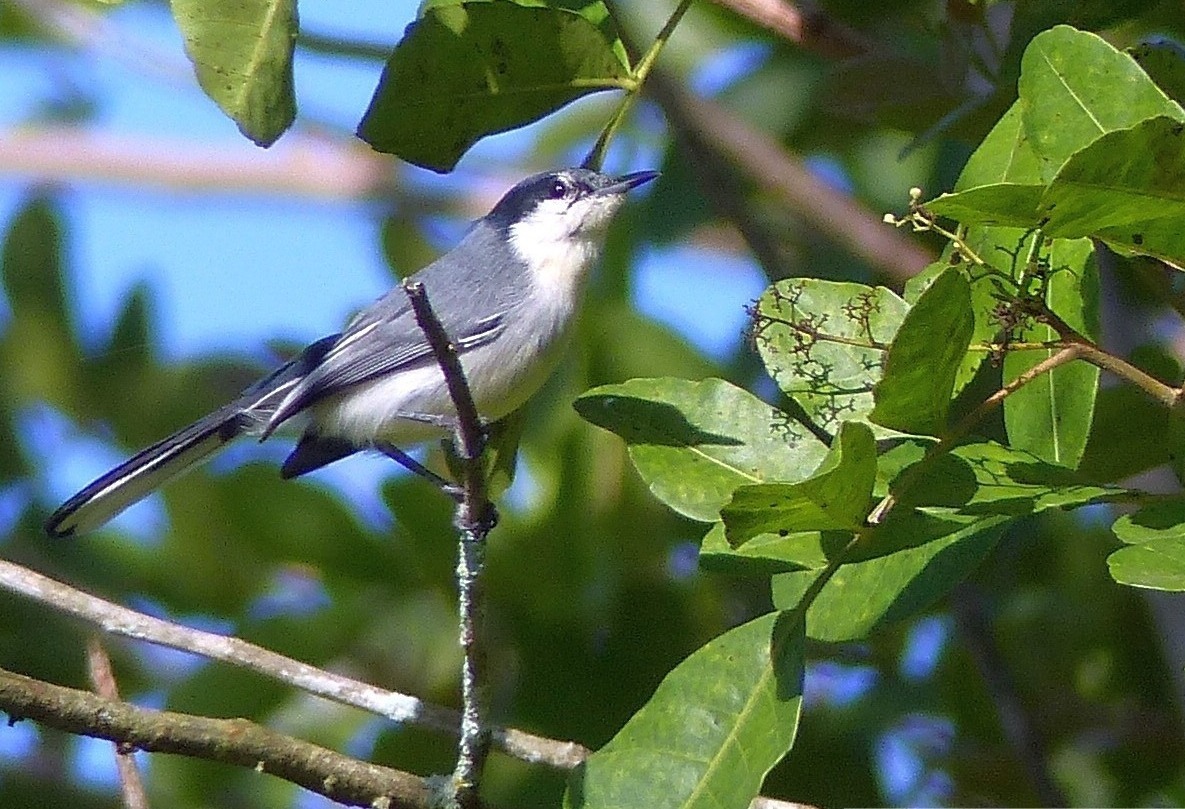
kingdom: Animalia
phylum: Chordata
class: Aves
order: Passeriformes
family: Polioptilidae
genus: Polioptila
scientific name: Polioptila plumbea
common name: Tropical gnatcatcher
